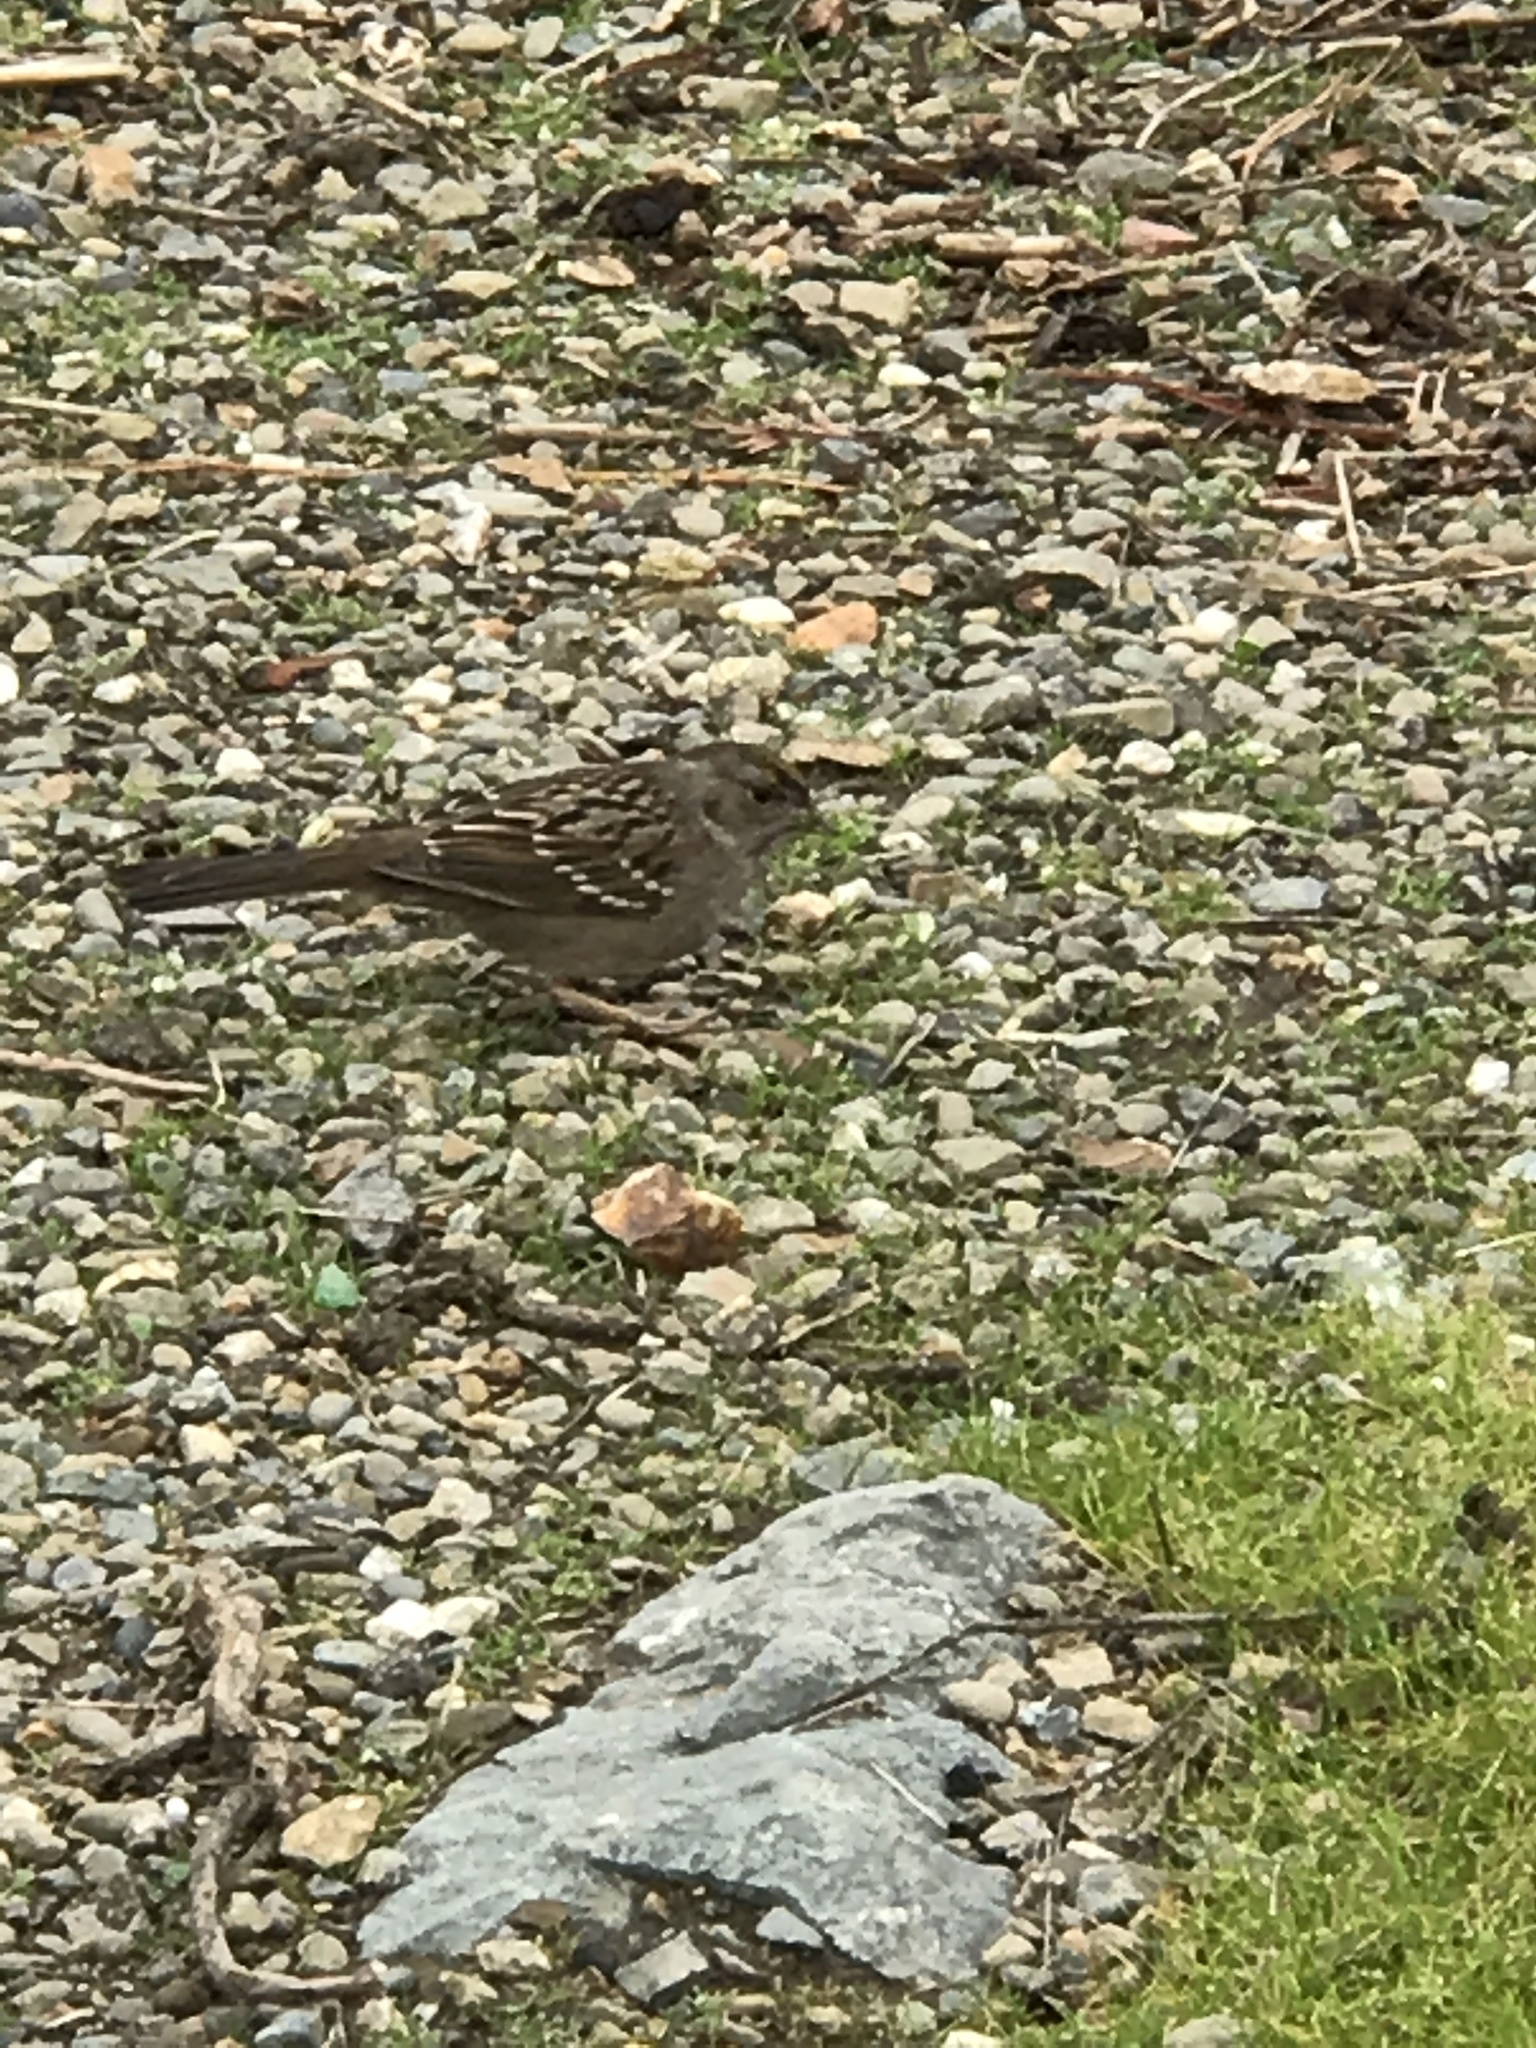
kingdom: Animalia
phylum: Chordata
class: Aves
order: Passeriformes
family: Passerellidae
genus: Zonotrichia
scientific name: Zonotrichia atricapilla
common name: Golden-crowned sparrow
